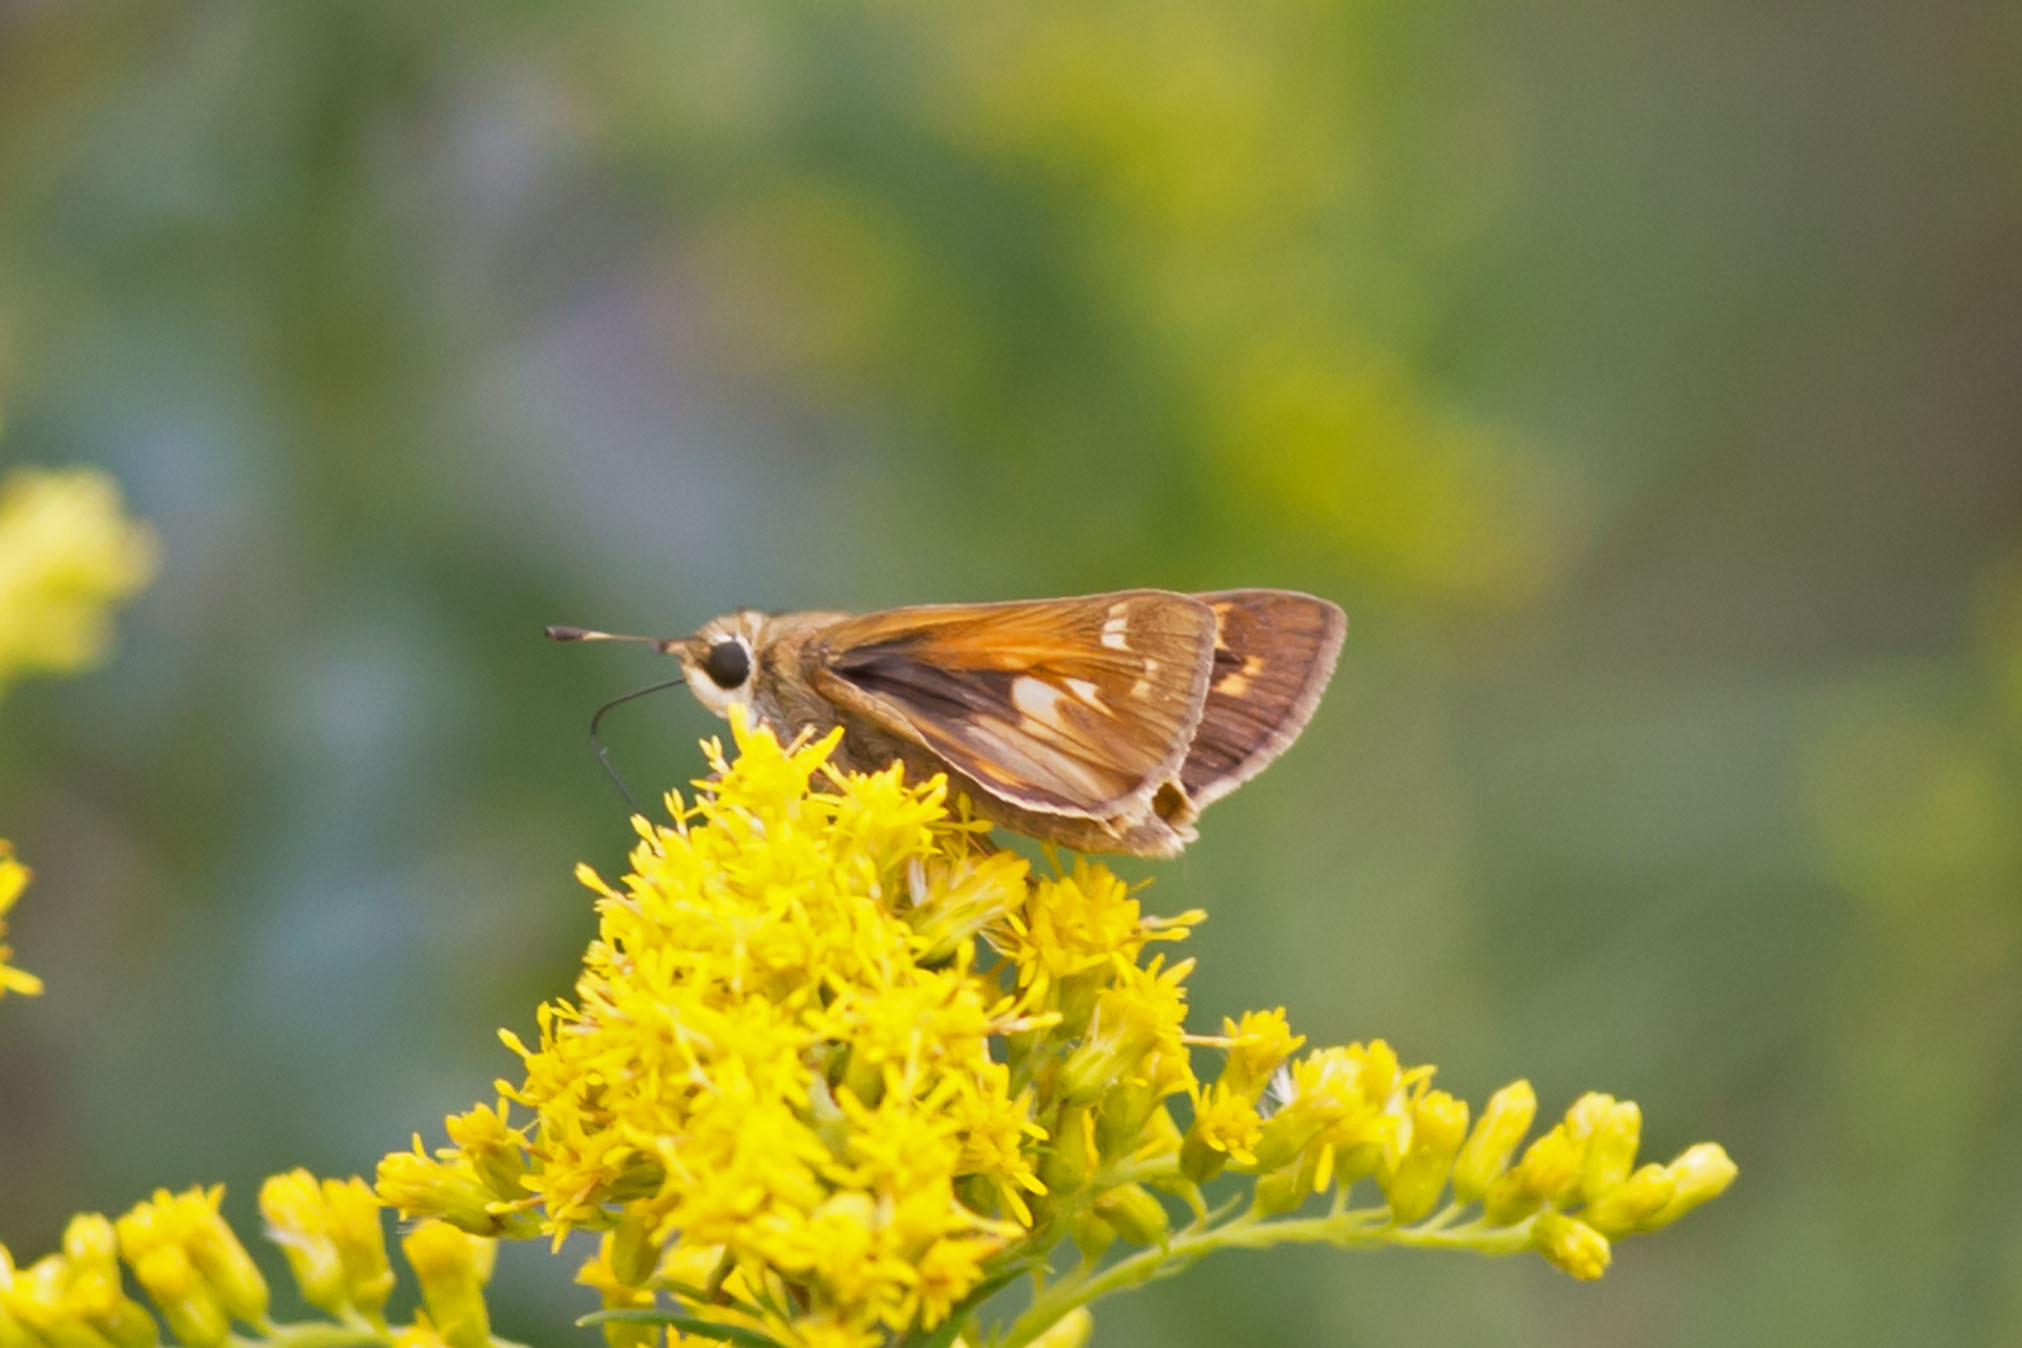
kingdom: Animalia
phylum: Arthropoda
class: Insecta
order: Lepidoptera
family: Hesperiidae
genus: Atalopedes
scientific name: Atalopedes
